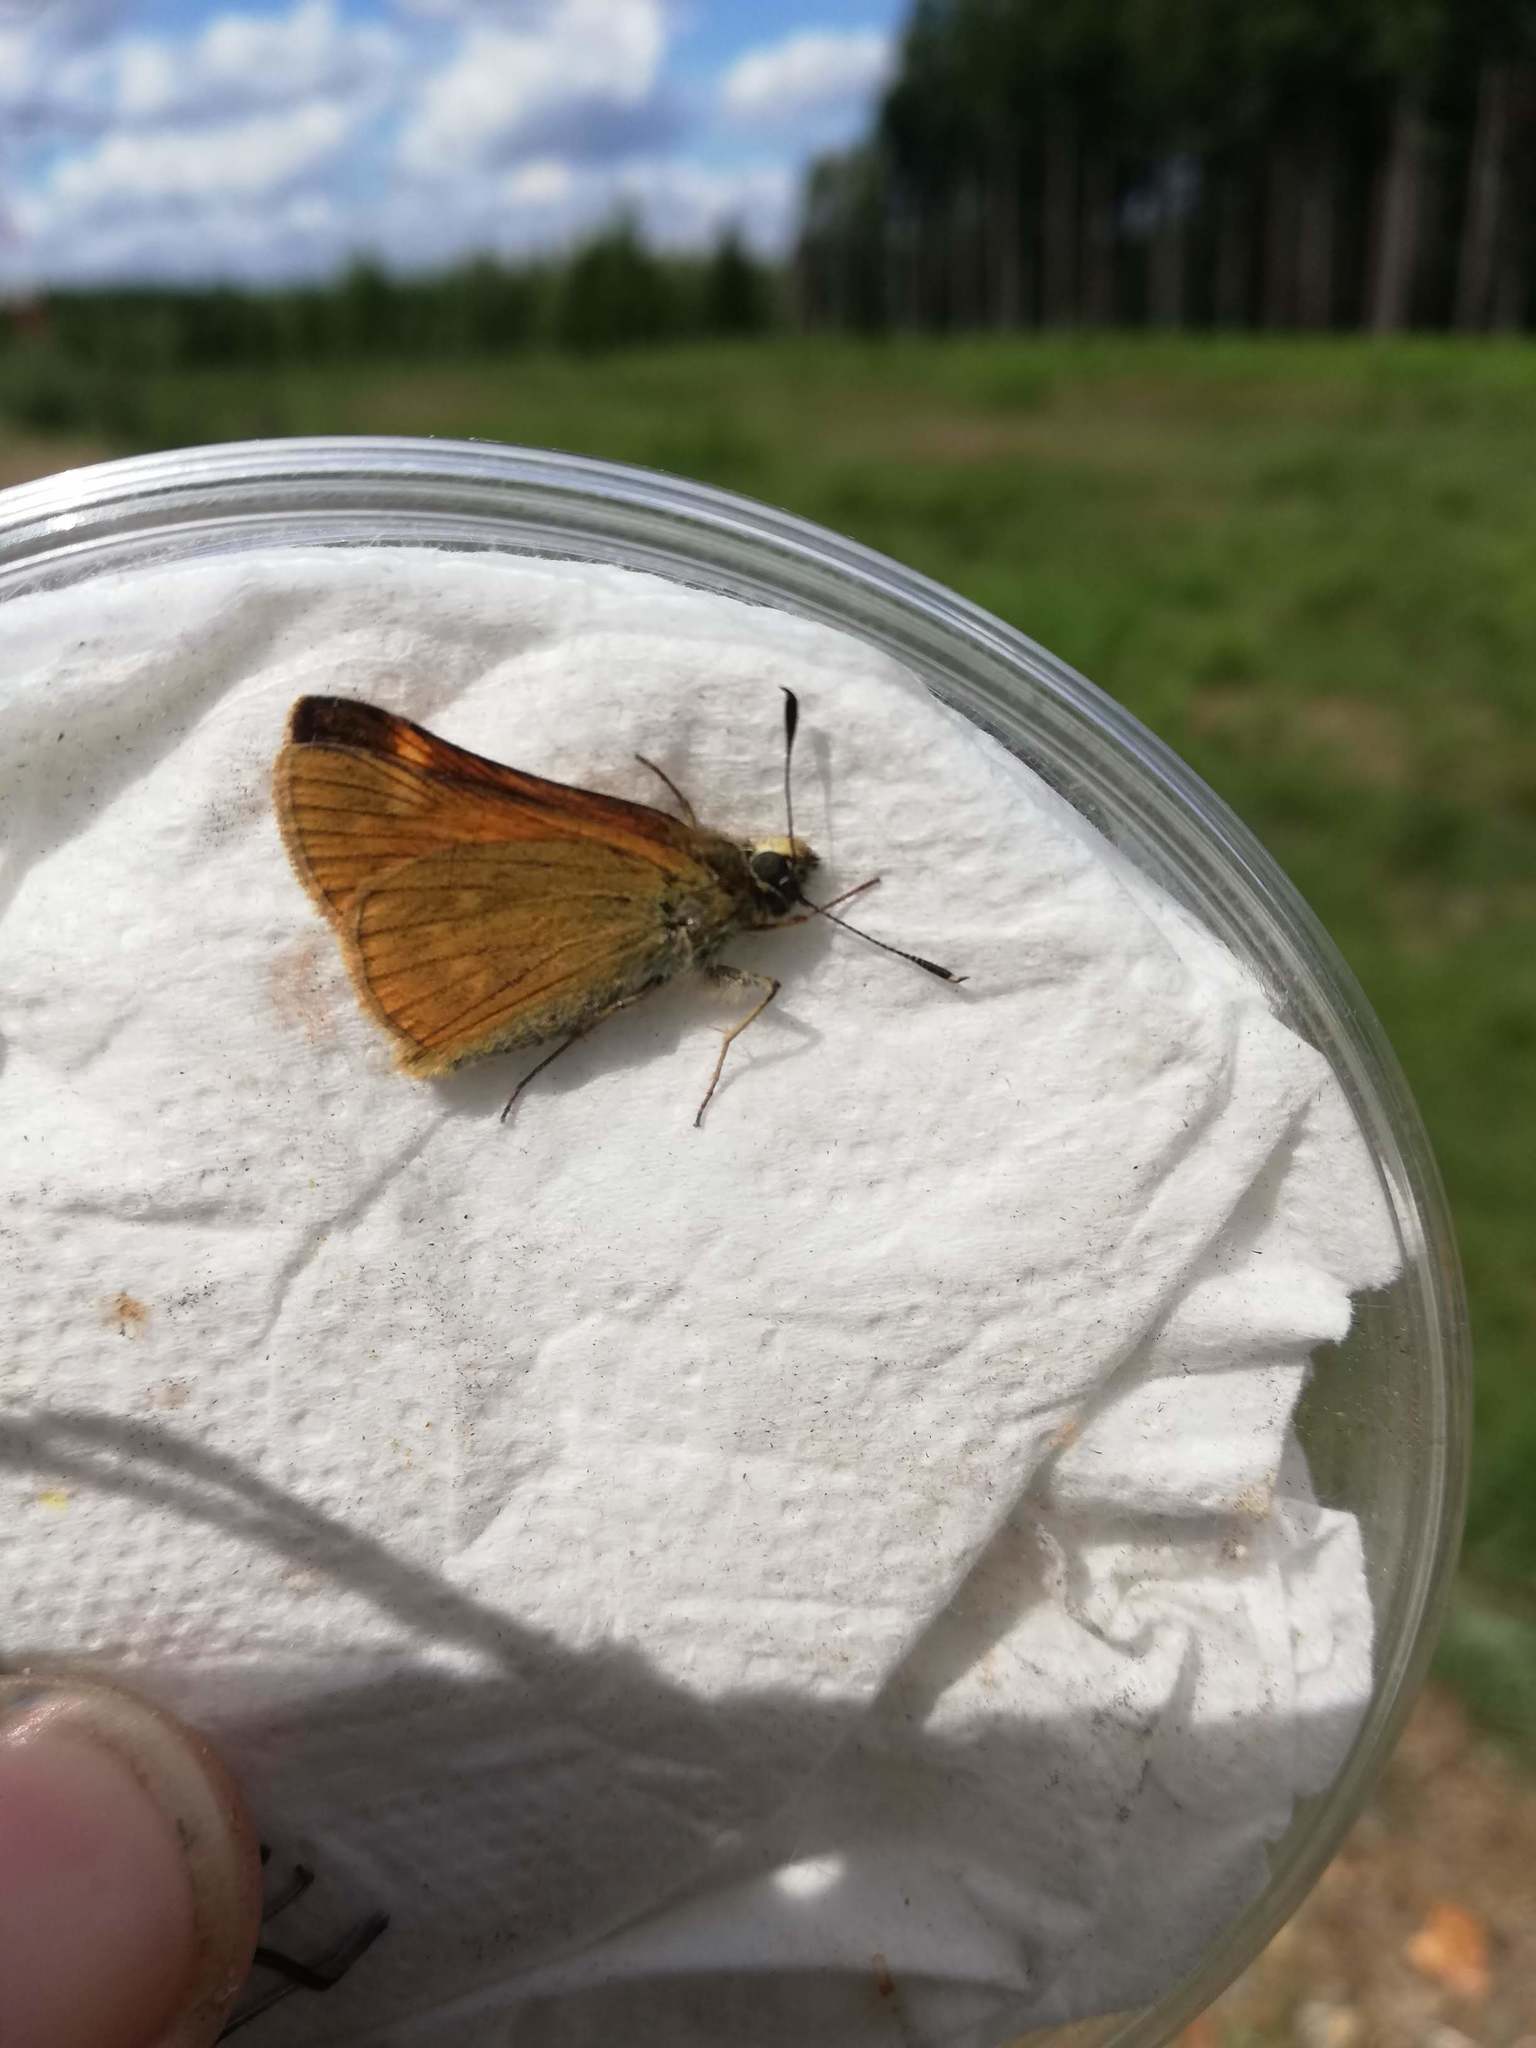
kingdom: Animalia
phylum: Arthropoda
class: Insecta
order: Lepidoptera
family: Hesperiidae
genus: Ochlodes
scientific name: Ochlodes venata
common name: Large skipper
